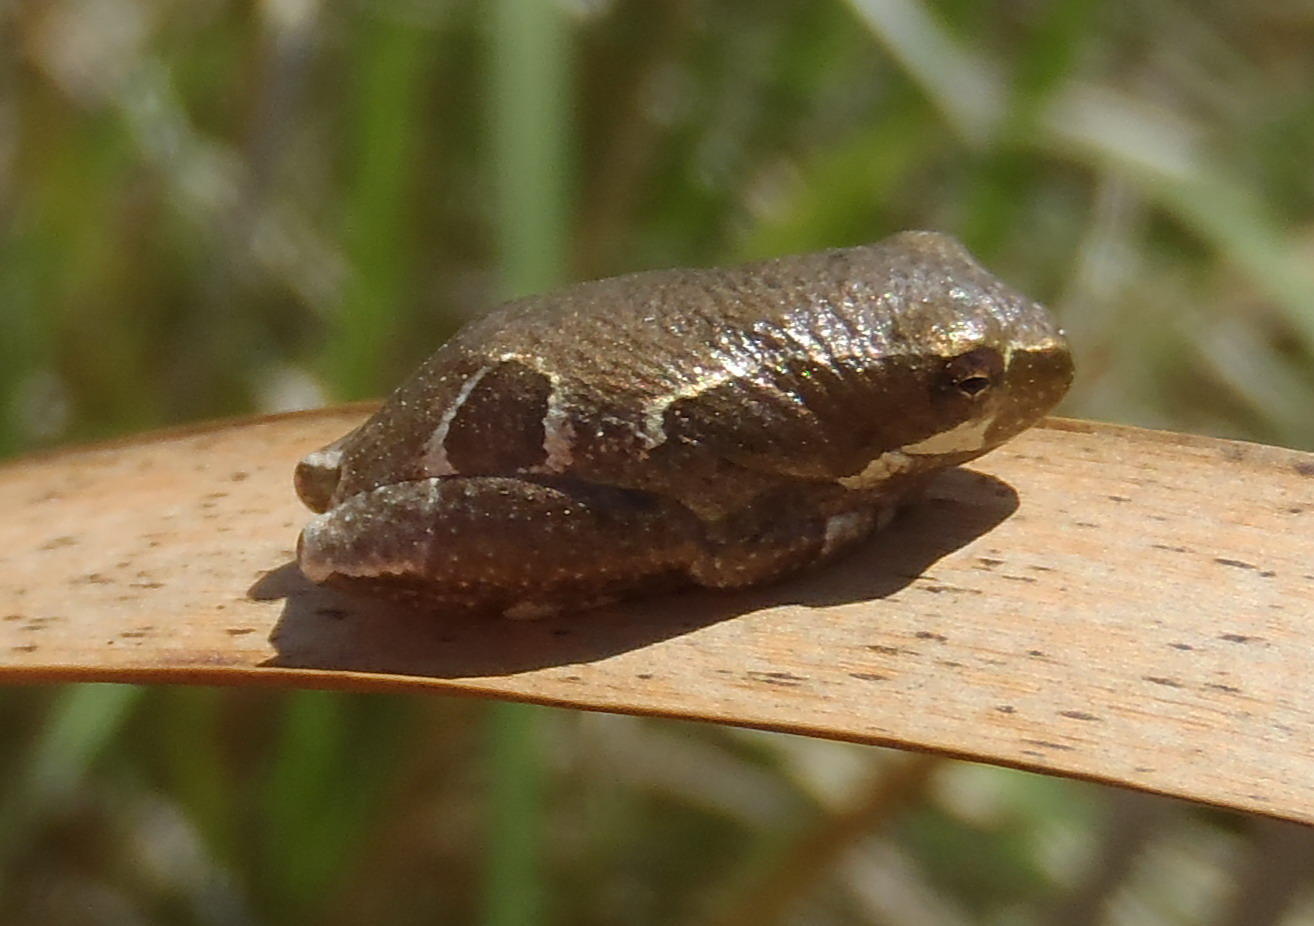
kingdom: Animalia
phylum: Chordata
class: Amphibia
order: Anura
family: Hyperoliidae
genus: Hyperolius
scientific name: Hyperolius marmoratus
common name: Painted reed frog
